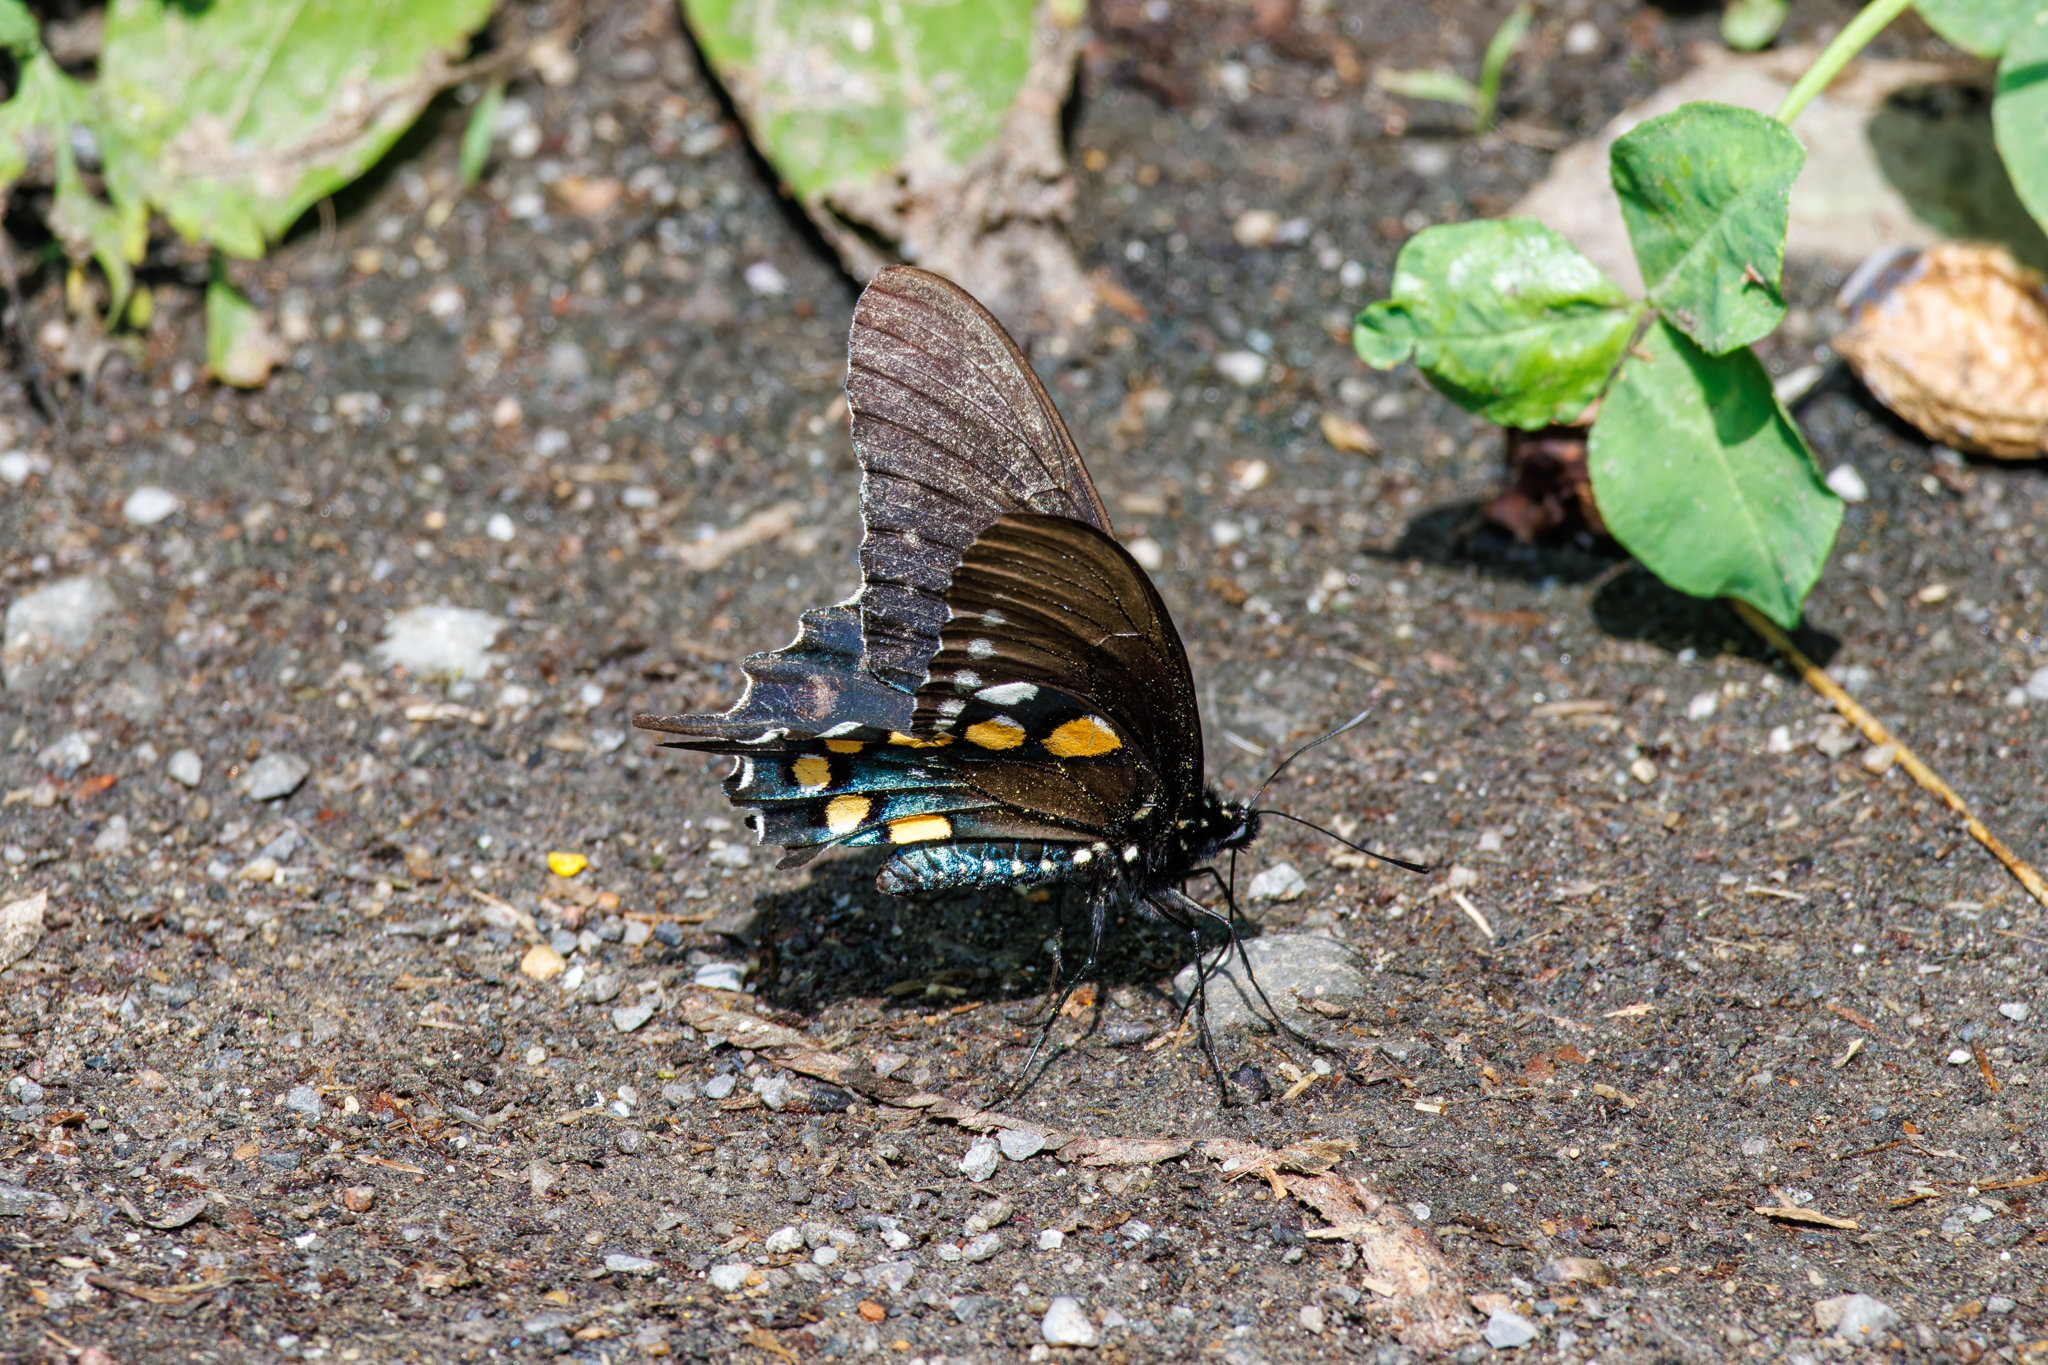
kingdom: Animalia
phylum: Arthropoda
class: Insecta
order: Lepidoptera
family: Papilionidae
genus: Battus
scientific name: Battus philenor
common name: Pipevine swallowtail
